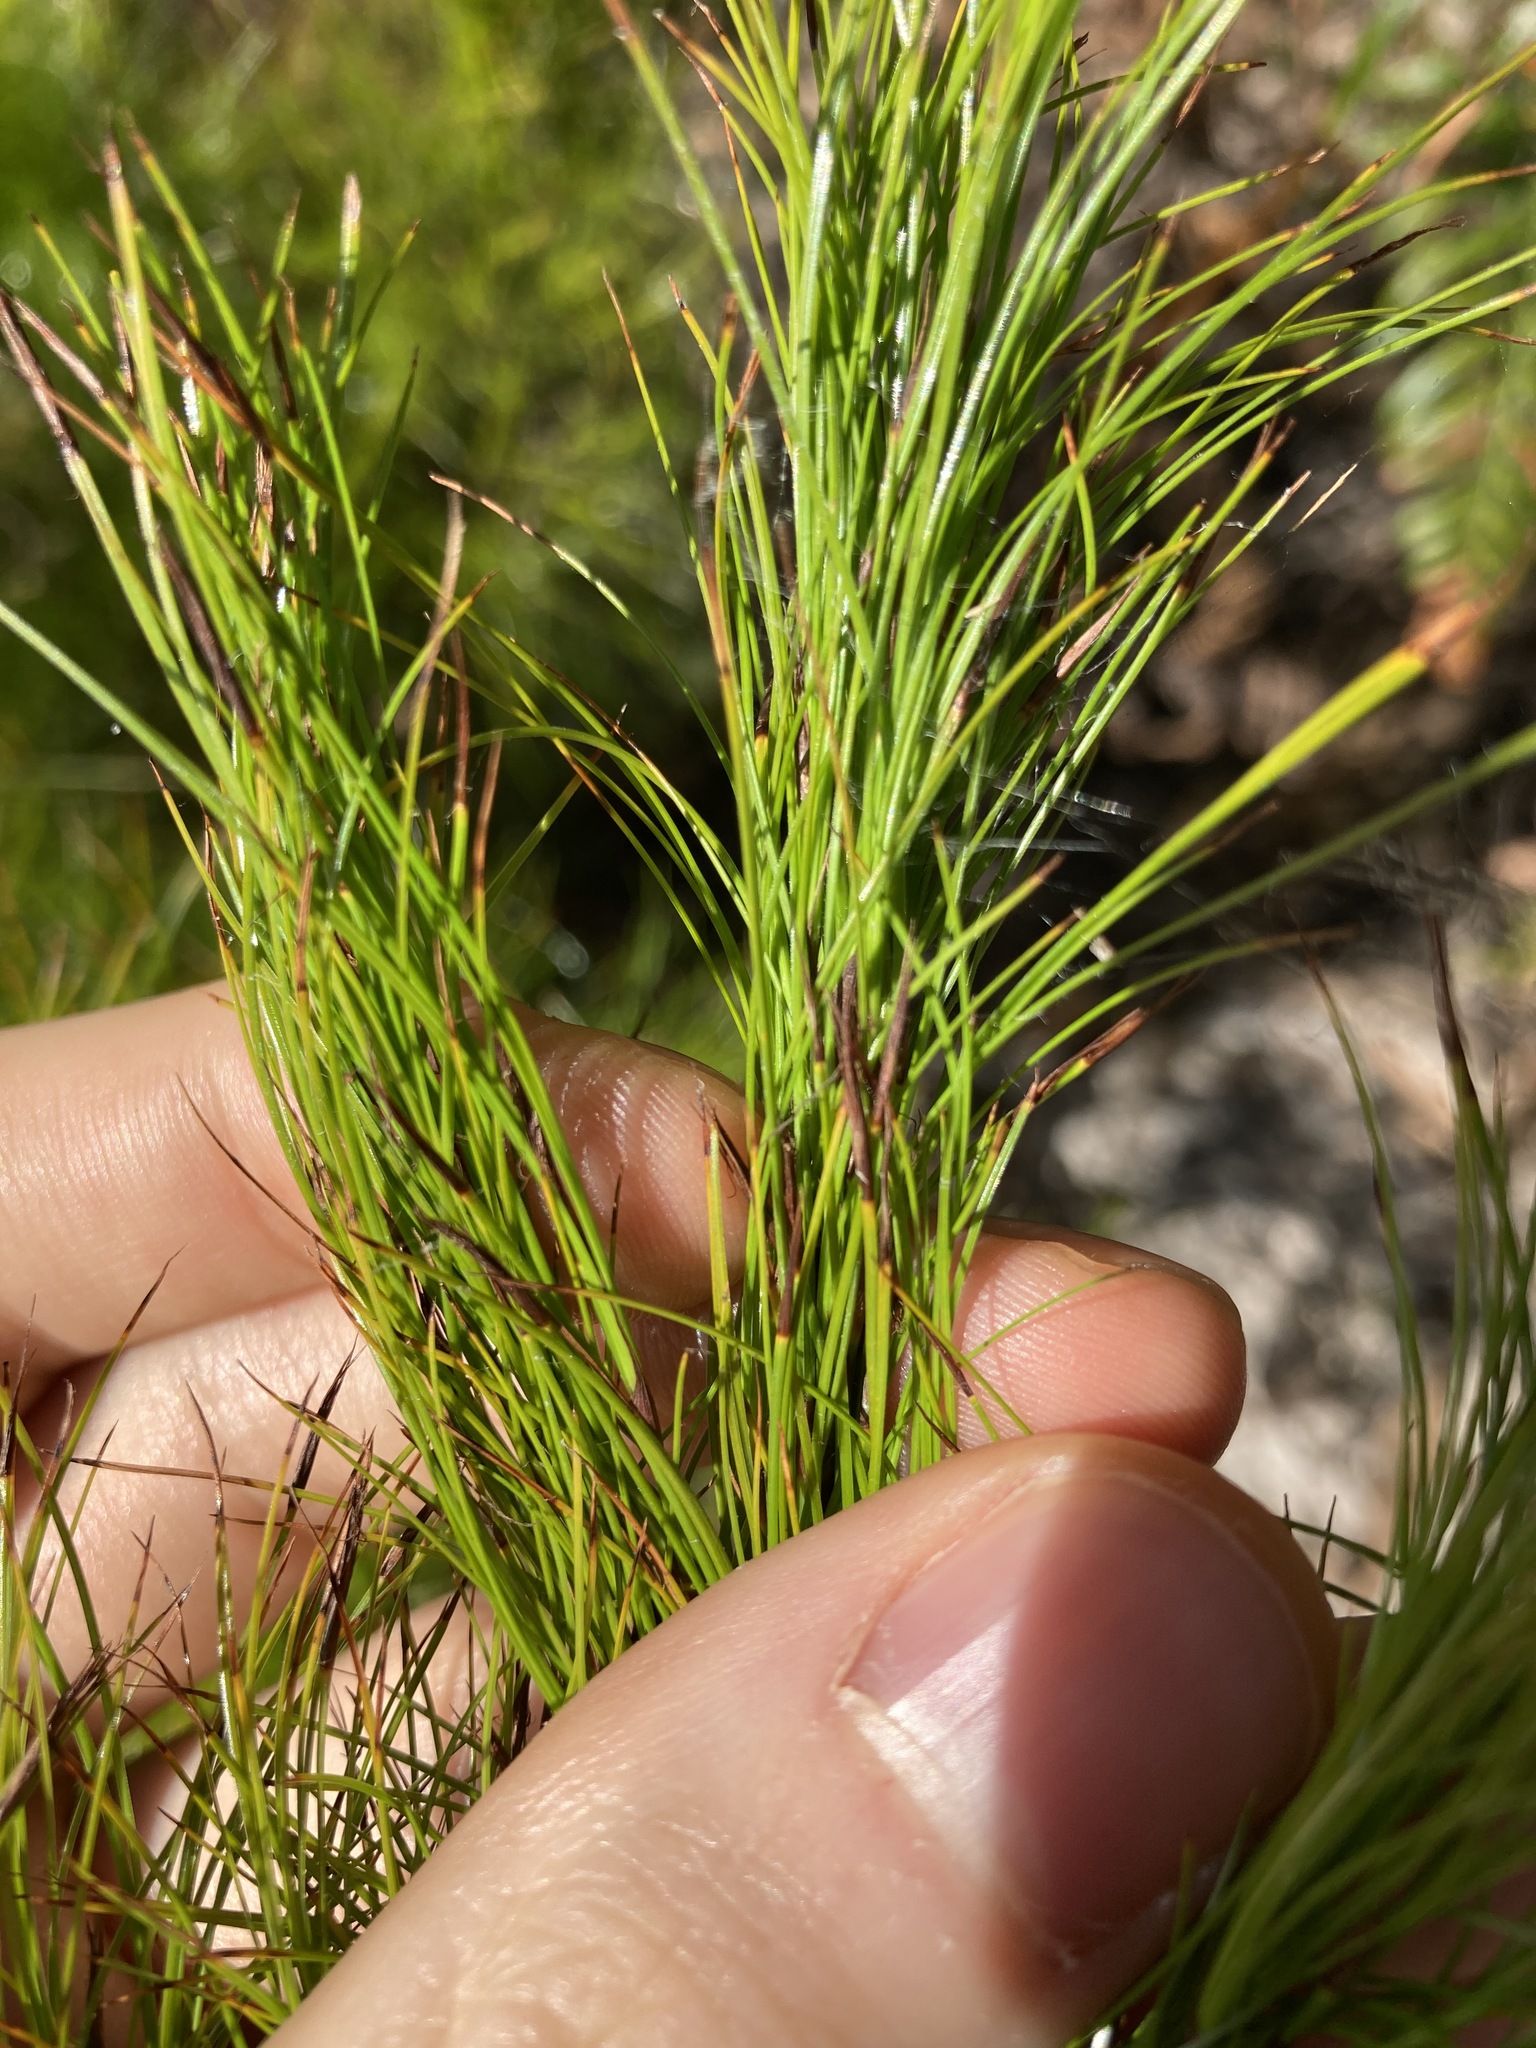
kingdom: Plantae
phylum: Tracheophyta
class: Liliopsida
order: Poales
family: Cyperaceae
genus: Caustis
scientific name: Caustis blakei
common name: Foxtail-fern
